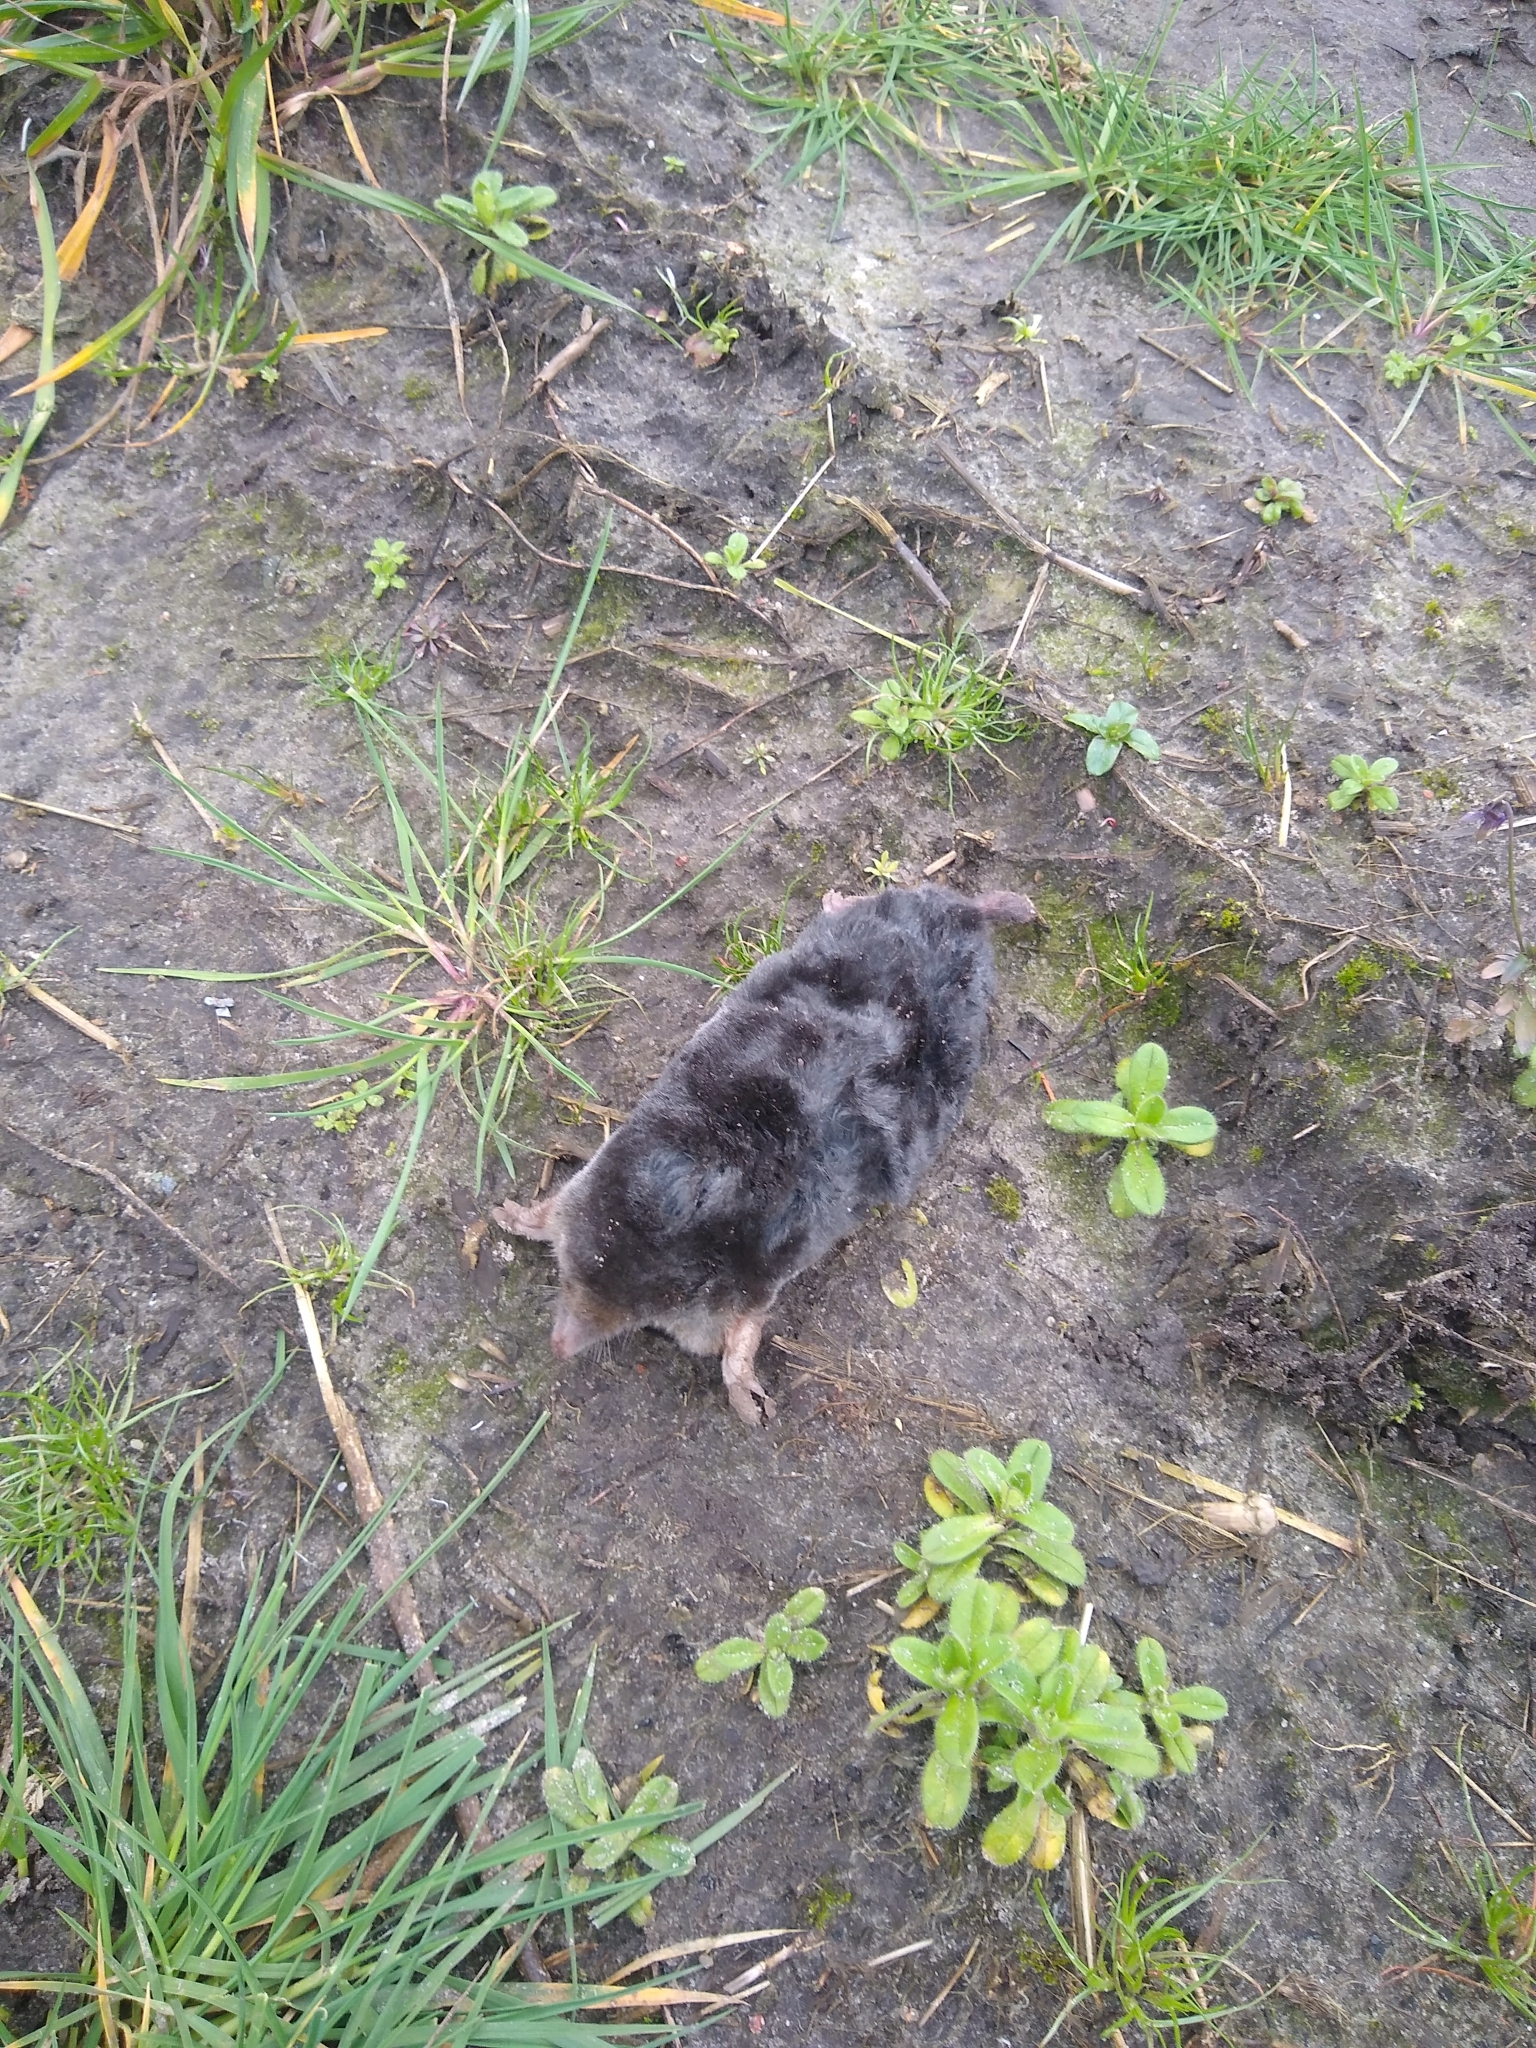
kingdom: Animalia
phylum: Chordata
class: Mammalia
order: Soricomorpha
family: Talpidae
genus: Talpa
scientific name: Talpa europaea
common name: European mole
